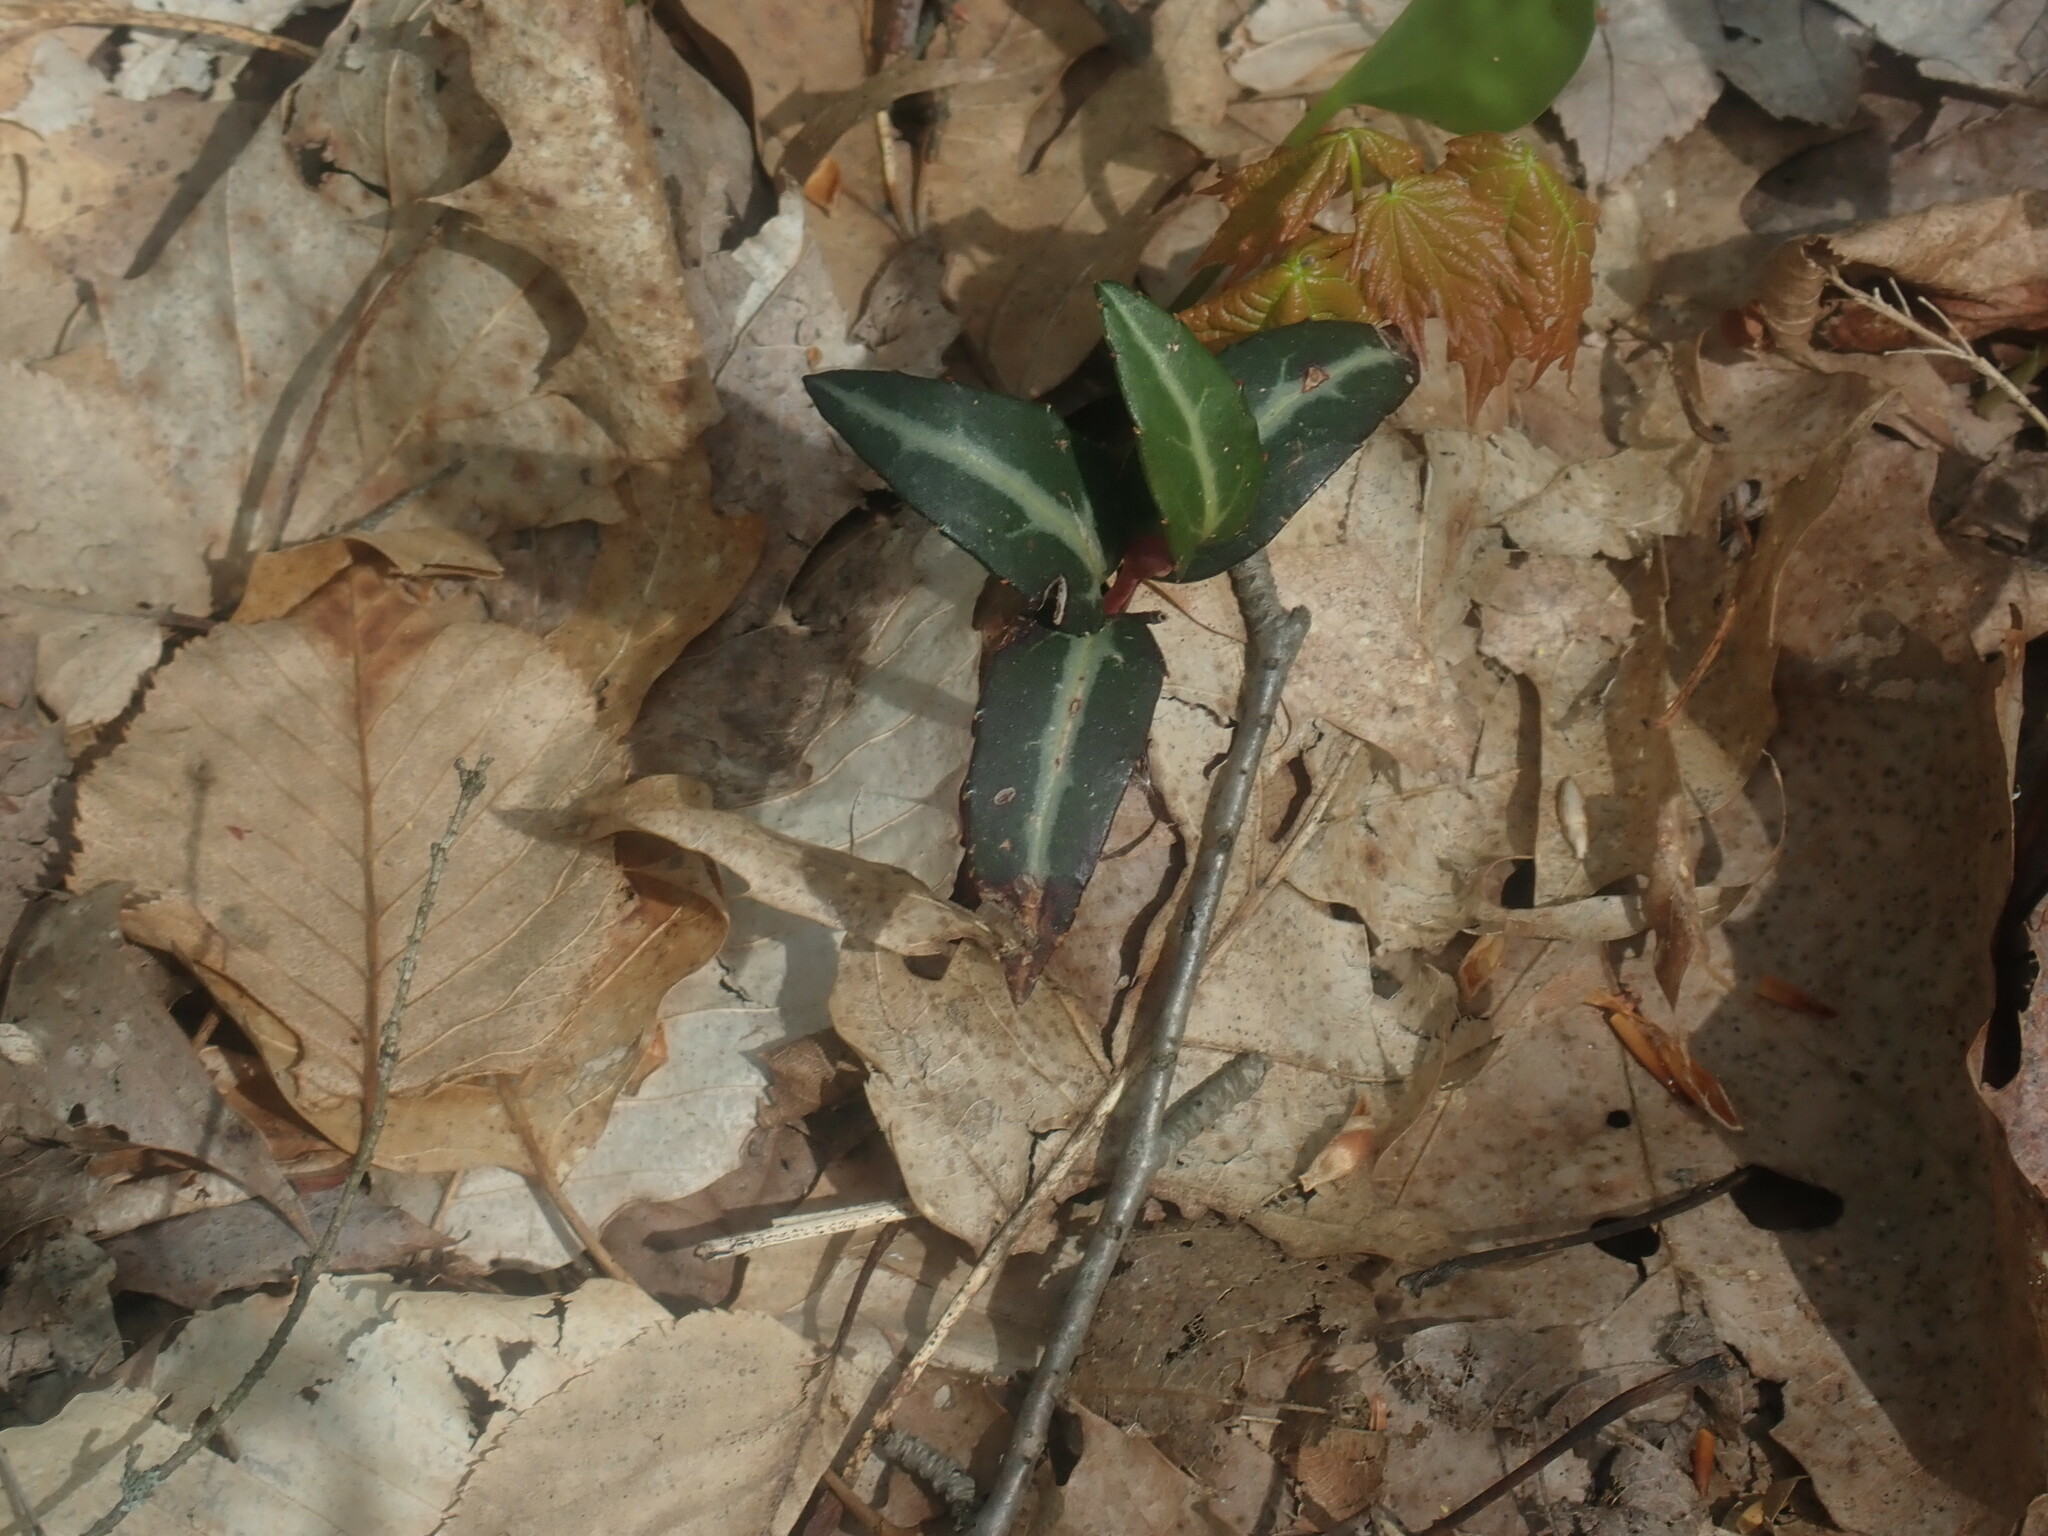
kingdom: Plantae
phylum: Tracheophyta
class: Magnoliopsida
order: Ericales
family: Ericaceae
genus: Chimaphila
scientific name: Chimaphila maculata
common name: Spotted pipsissewa
